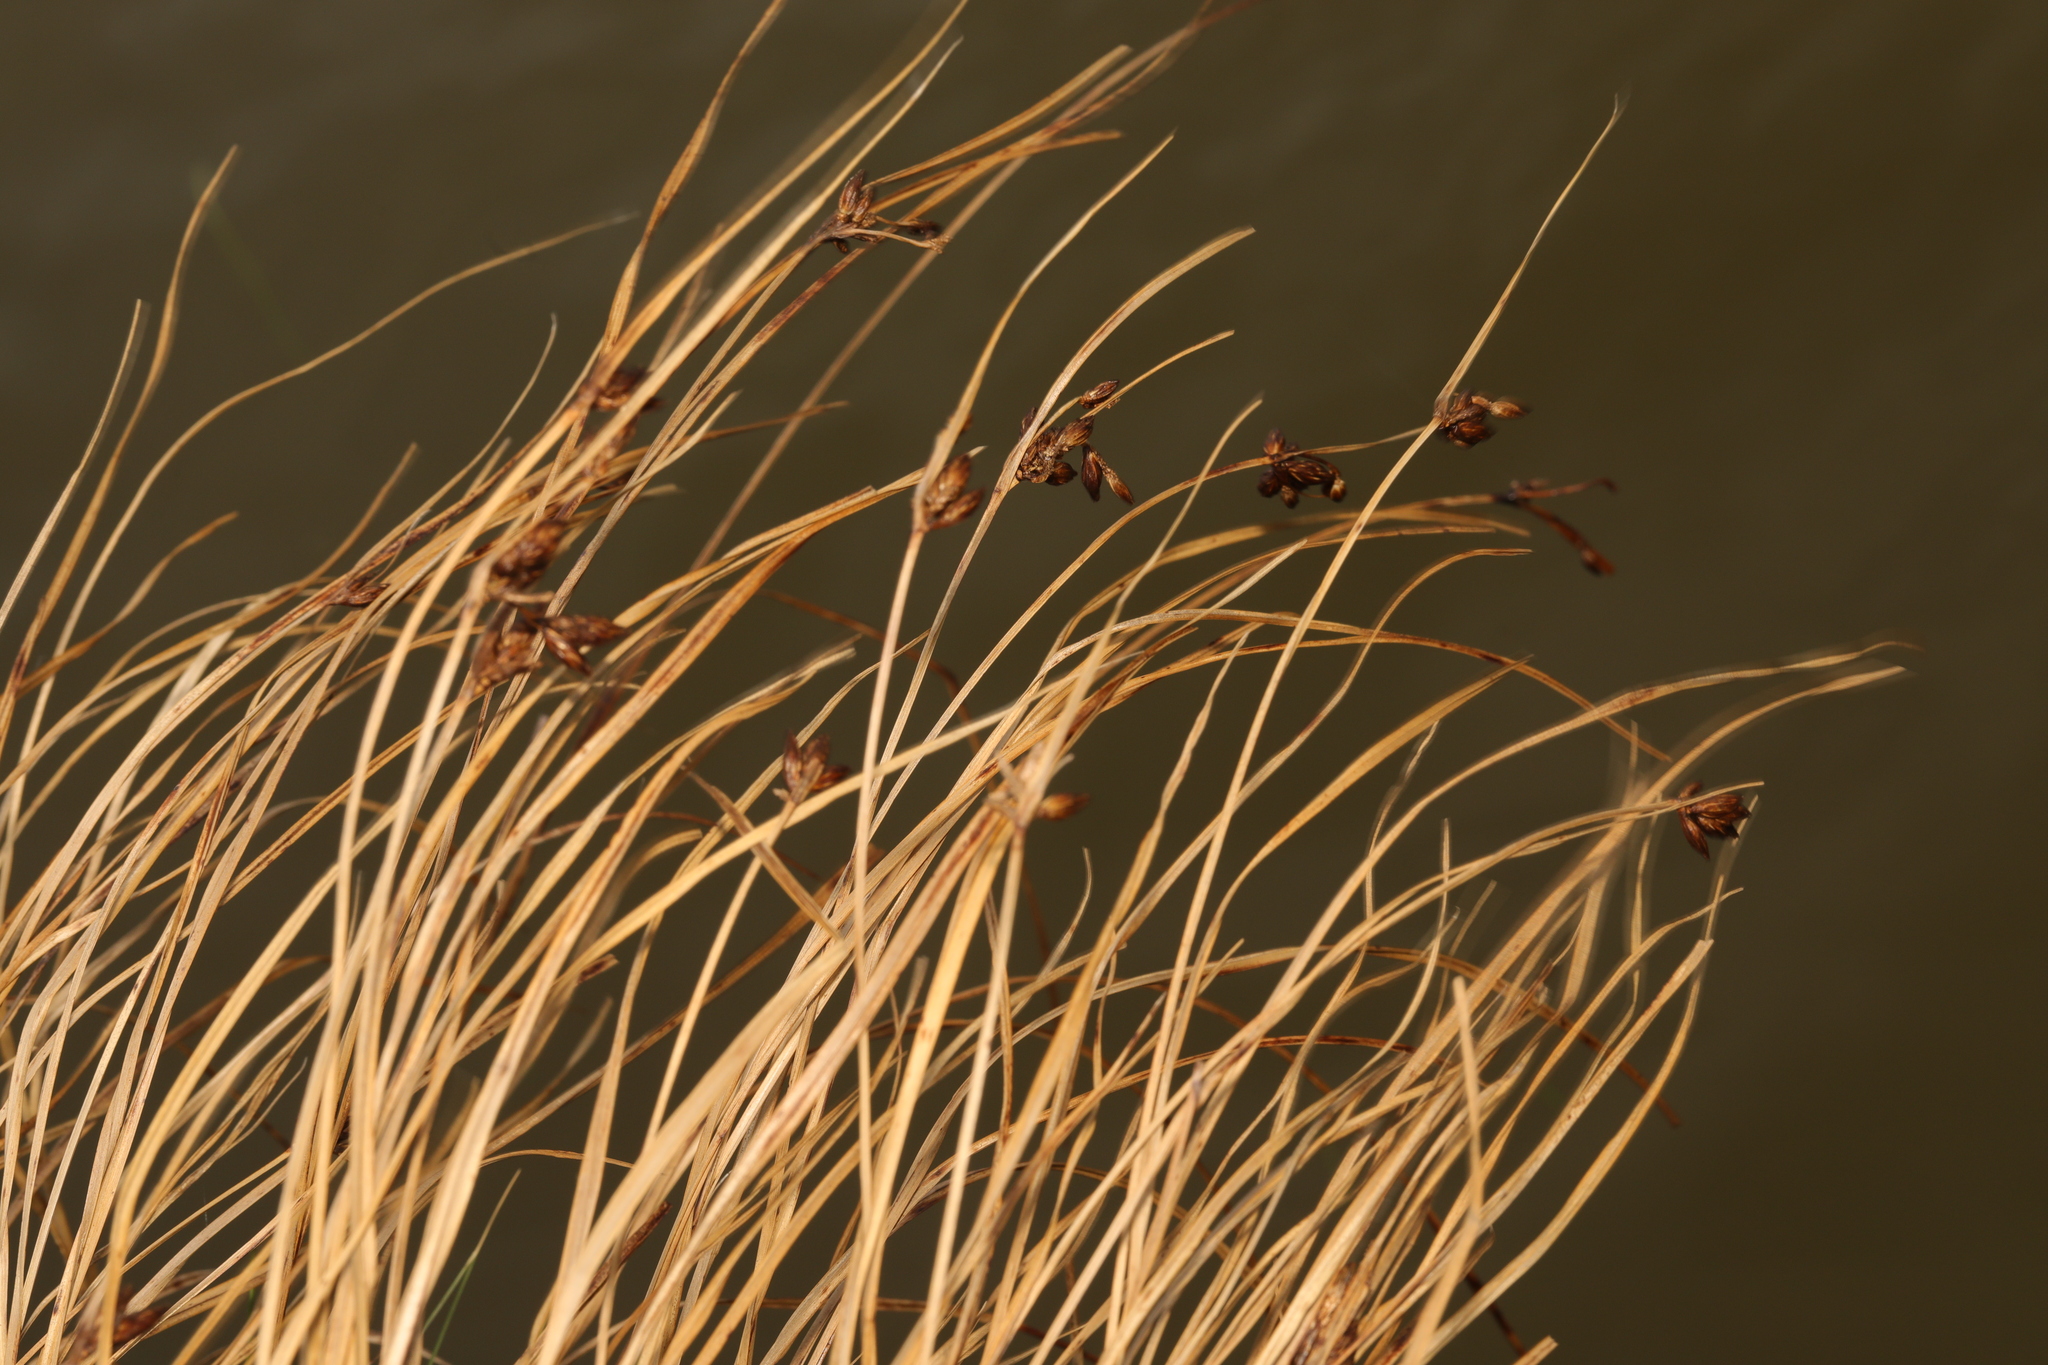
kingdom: Plantae
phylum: Tracheophyta
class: Liliopsida
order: Poales
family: Cyperaceae
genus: Bolboschoenus
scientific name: Bolboschoenus maritimus
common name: Sea club-rush
